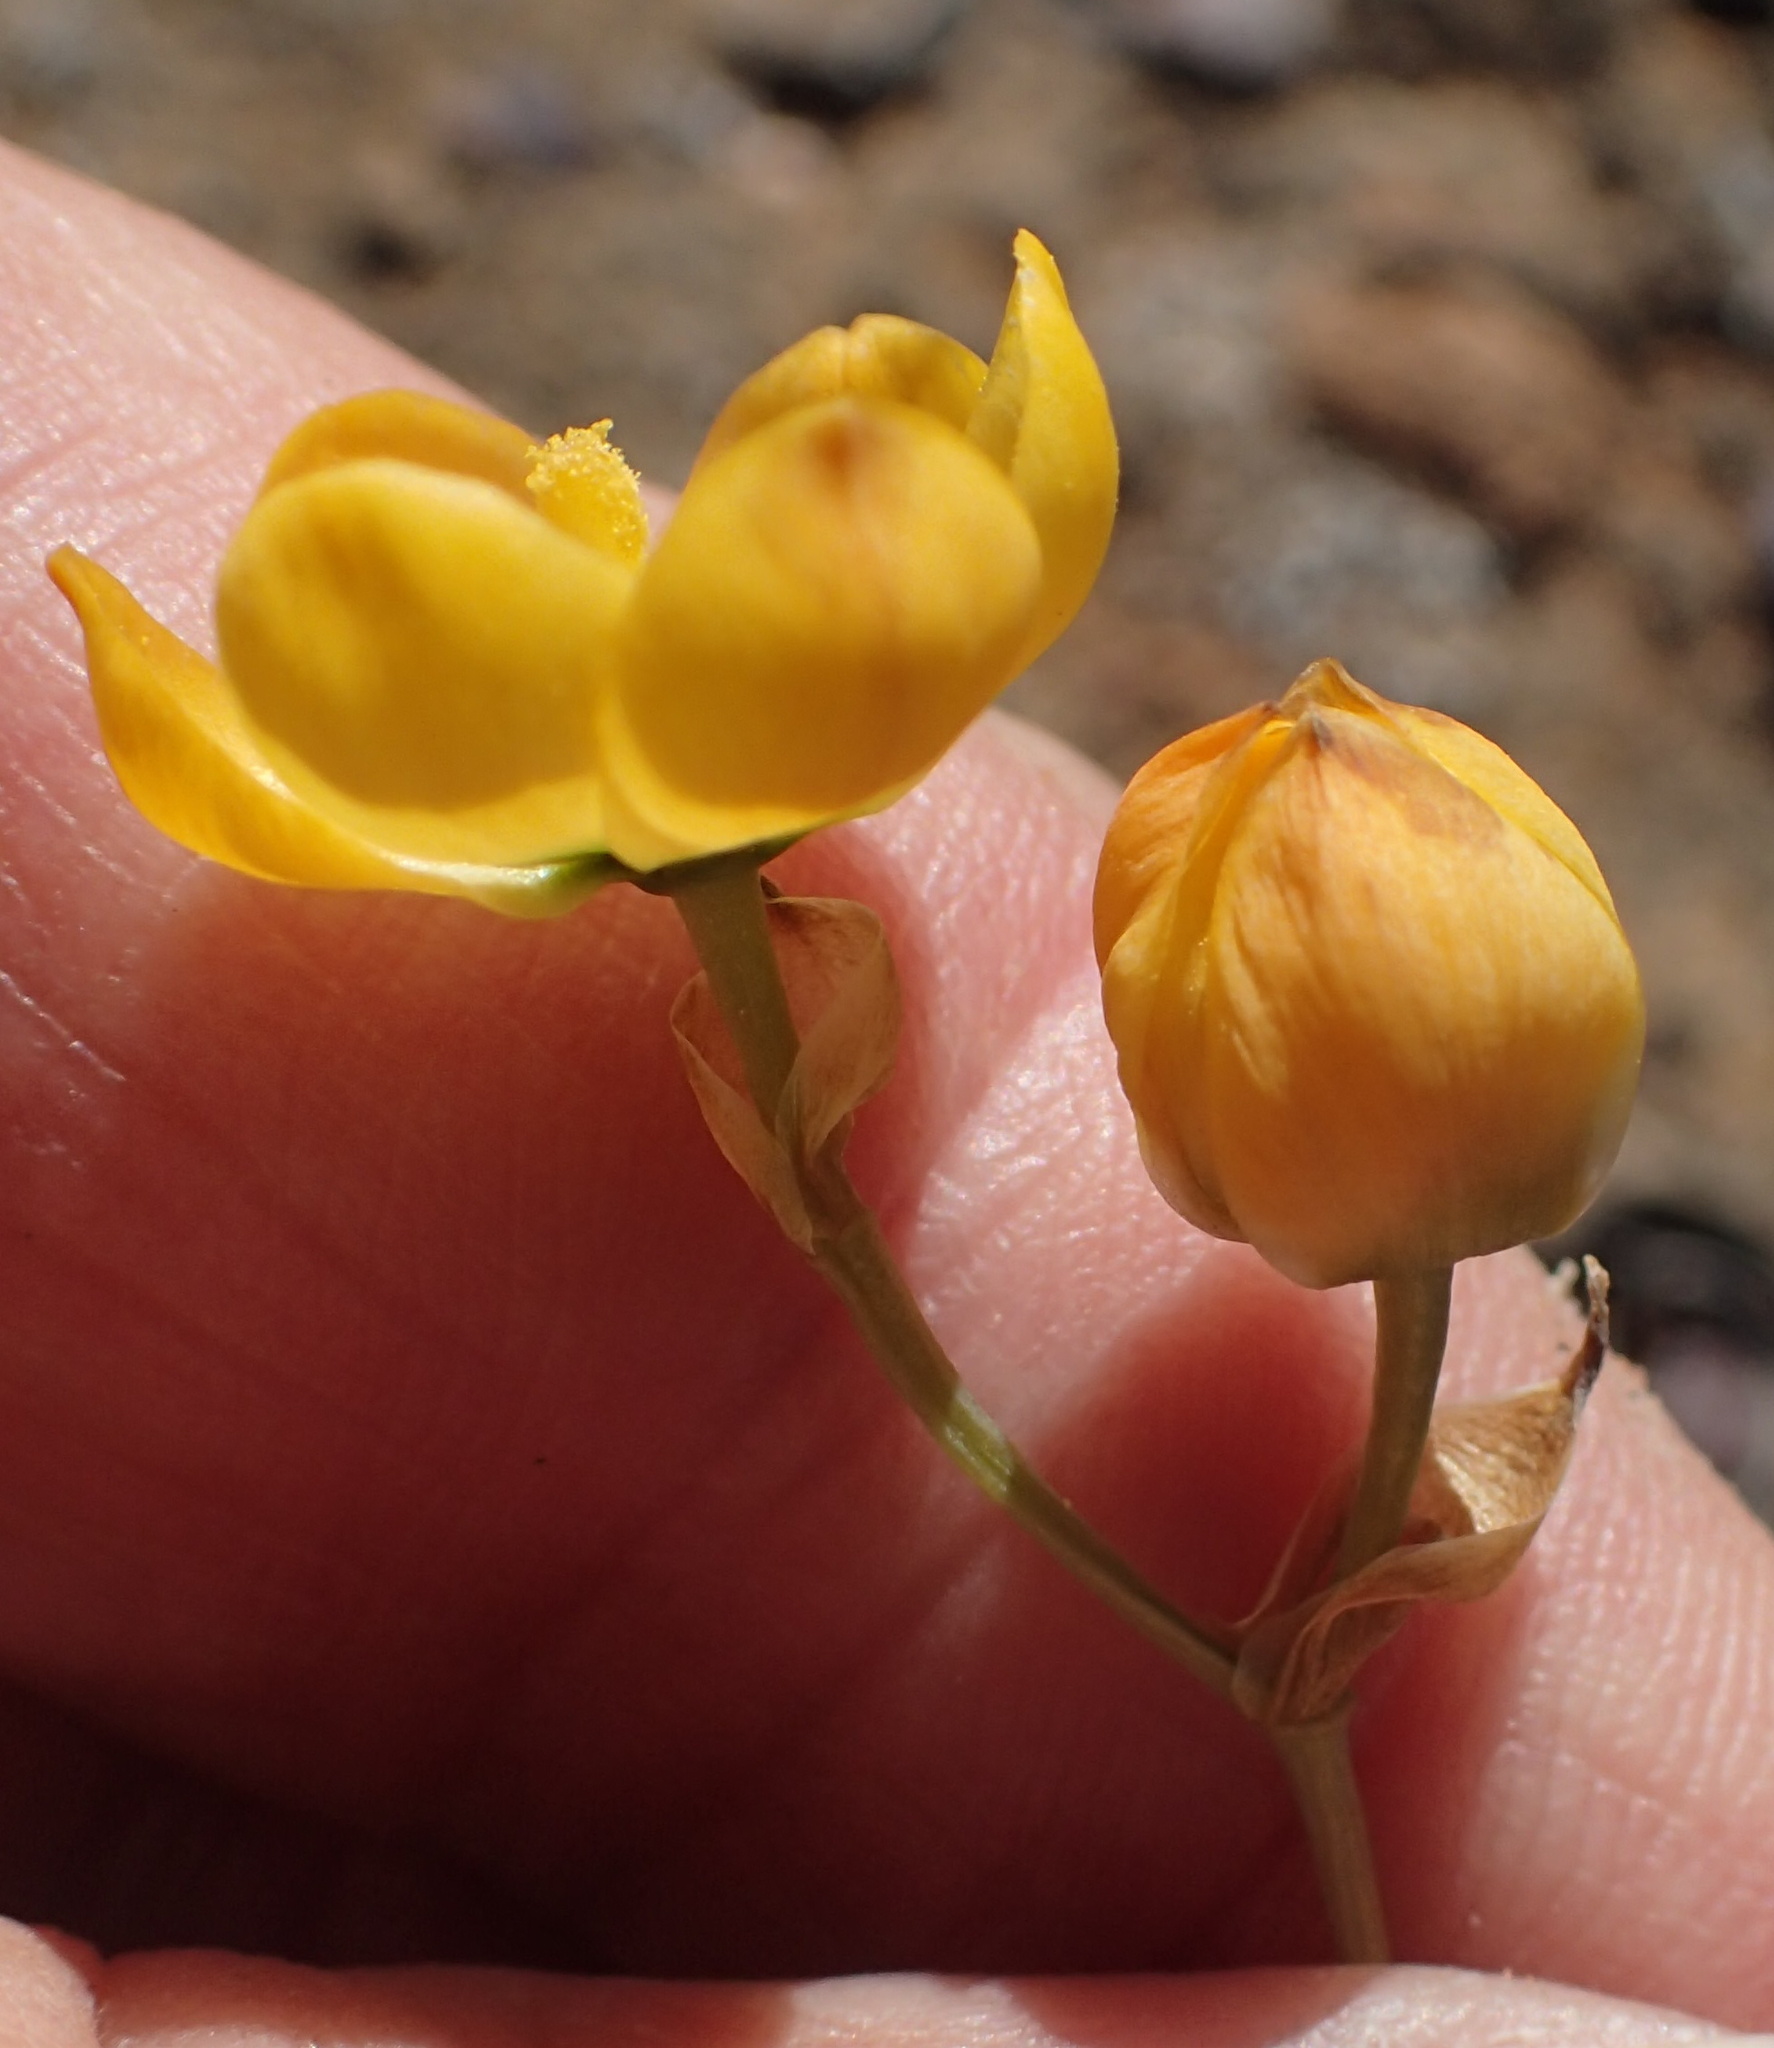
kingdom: Plantae
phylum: Tracheophyta
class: Liliopsida
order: Asparagales
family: Asparagaceae
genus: Ornithogalum
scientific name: Ornithogalum multifolium
